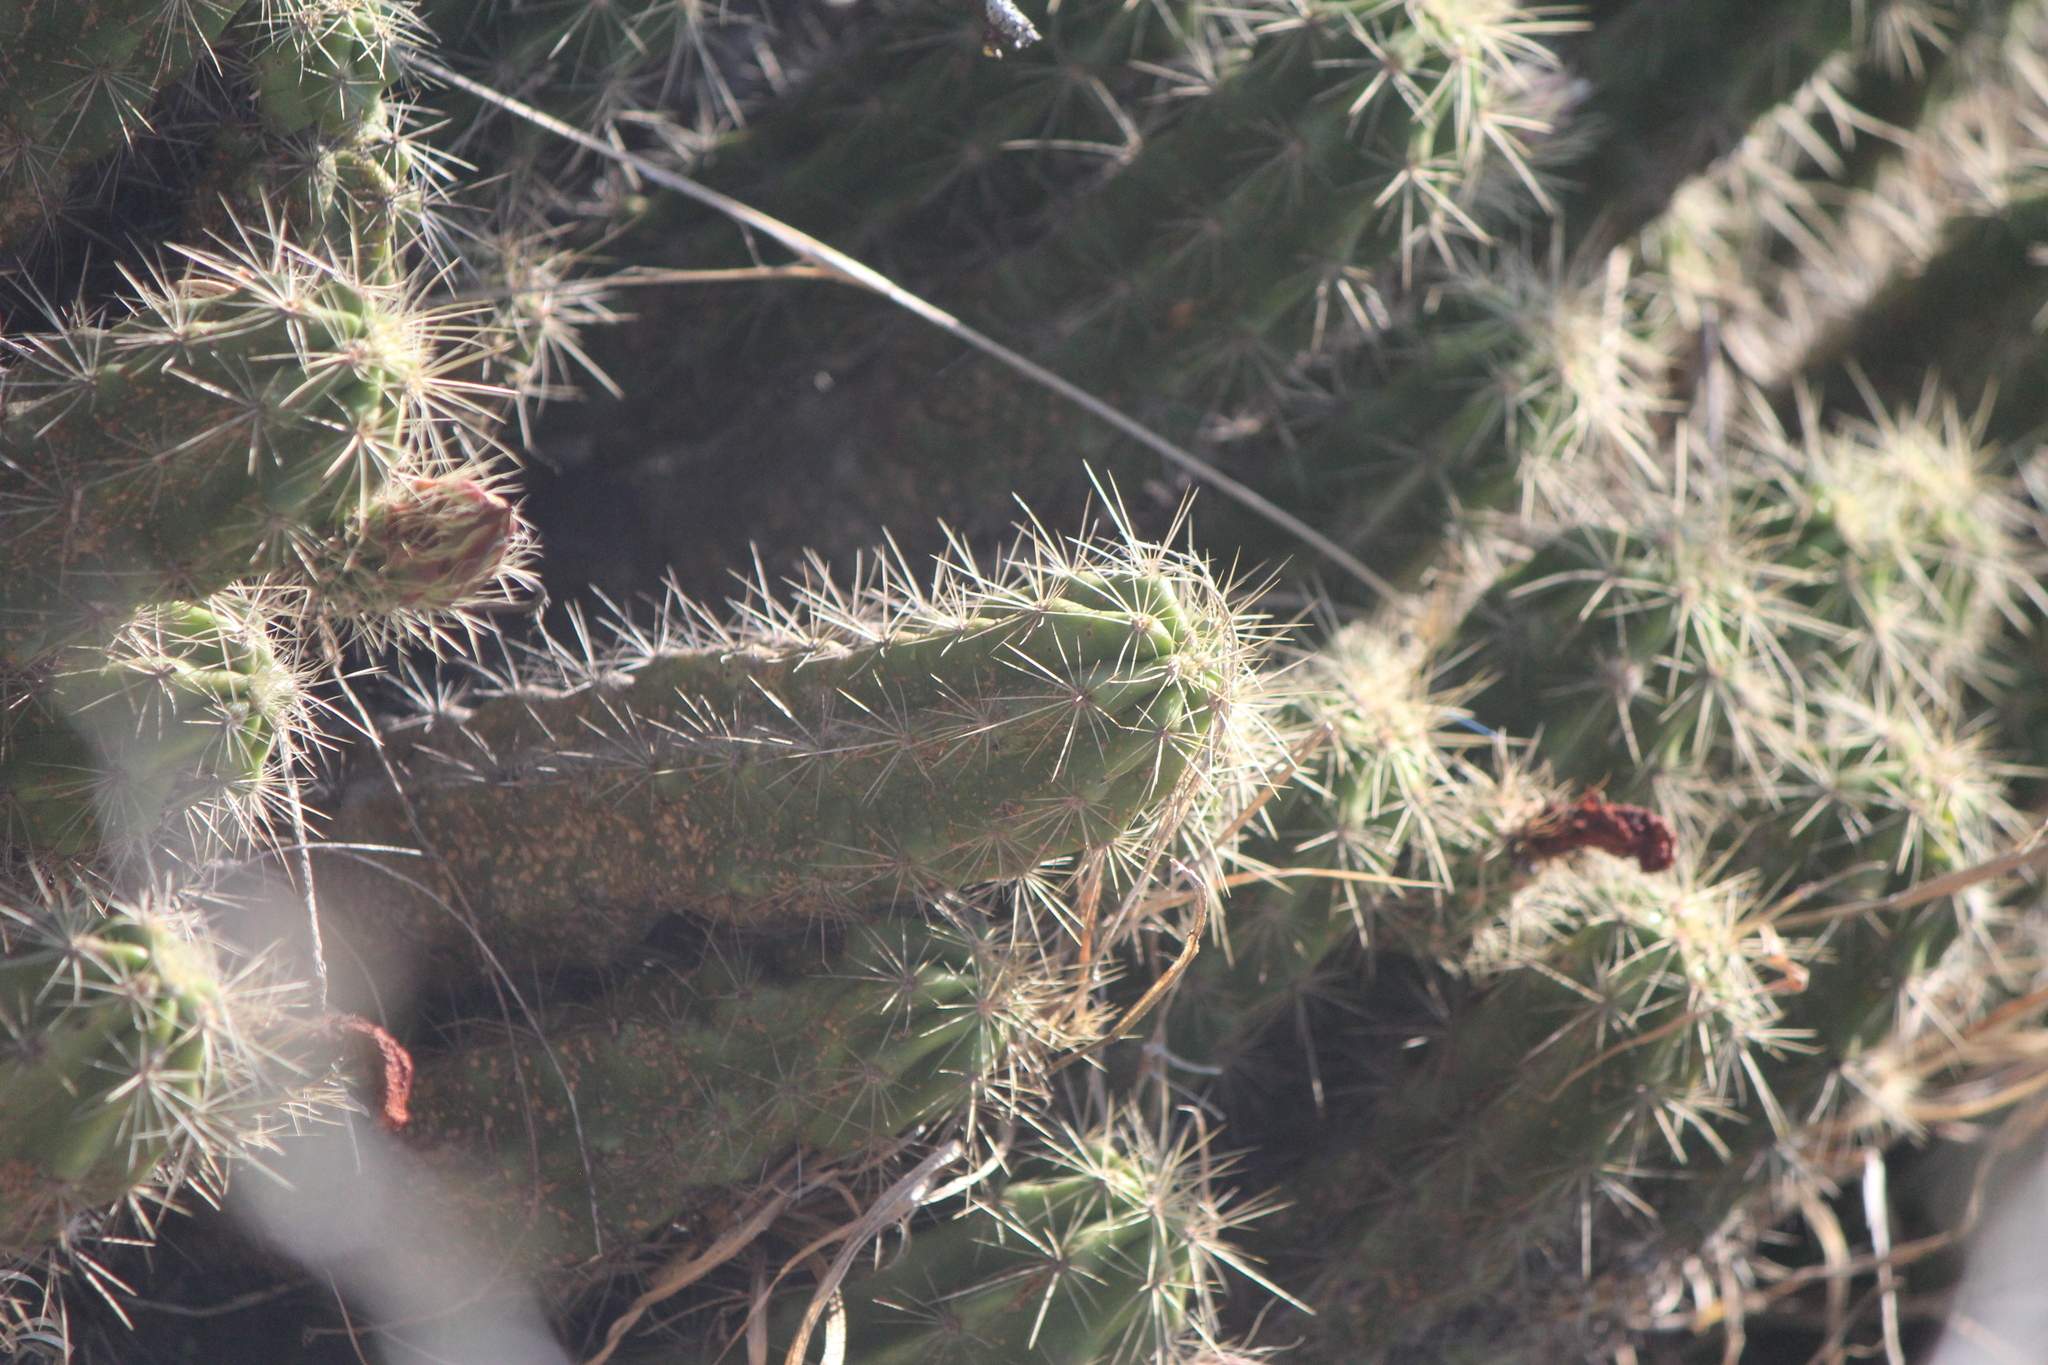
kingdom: Plantae
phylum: Tracheophyta
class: Magnoliopsida
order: Caryophyllales
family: Cactaceae
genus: Echinocereus
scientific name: Echinocereus cinerascens
